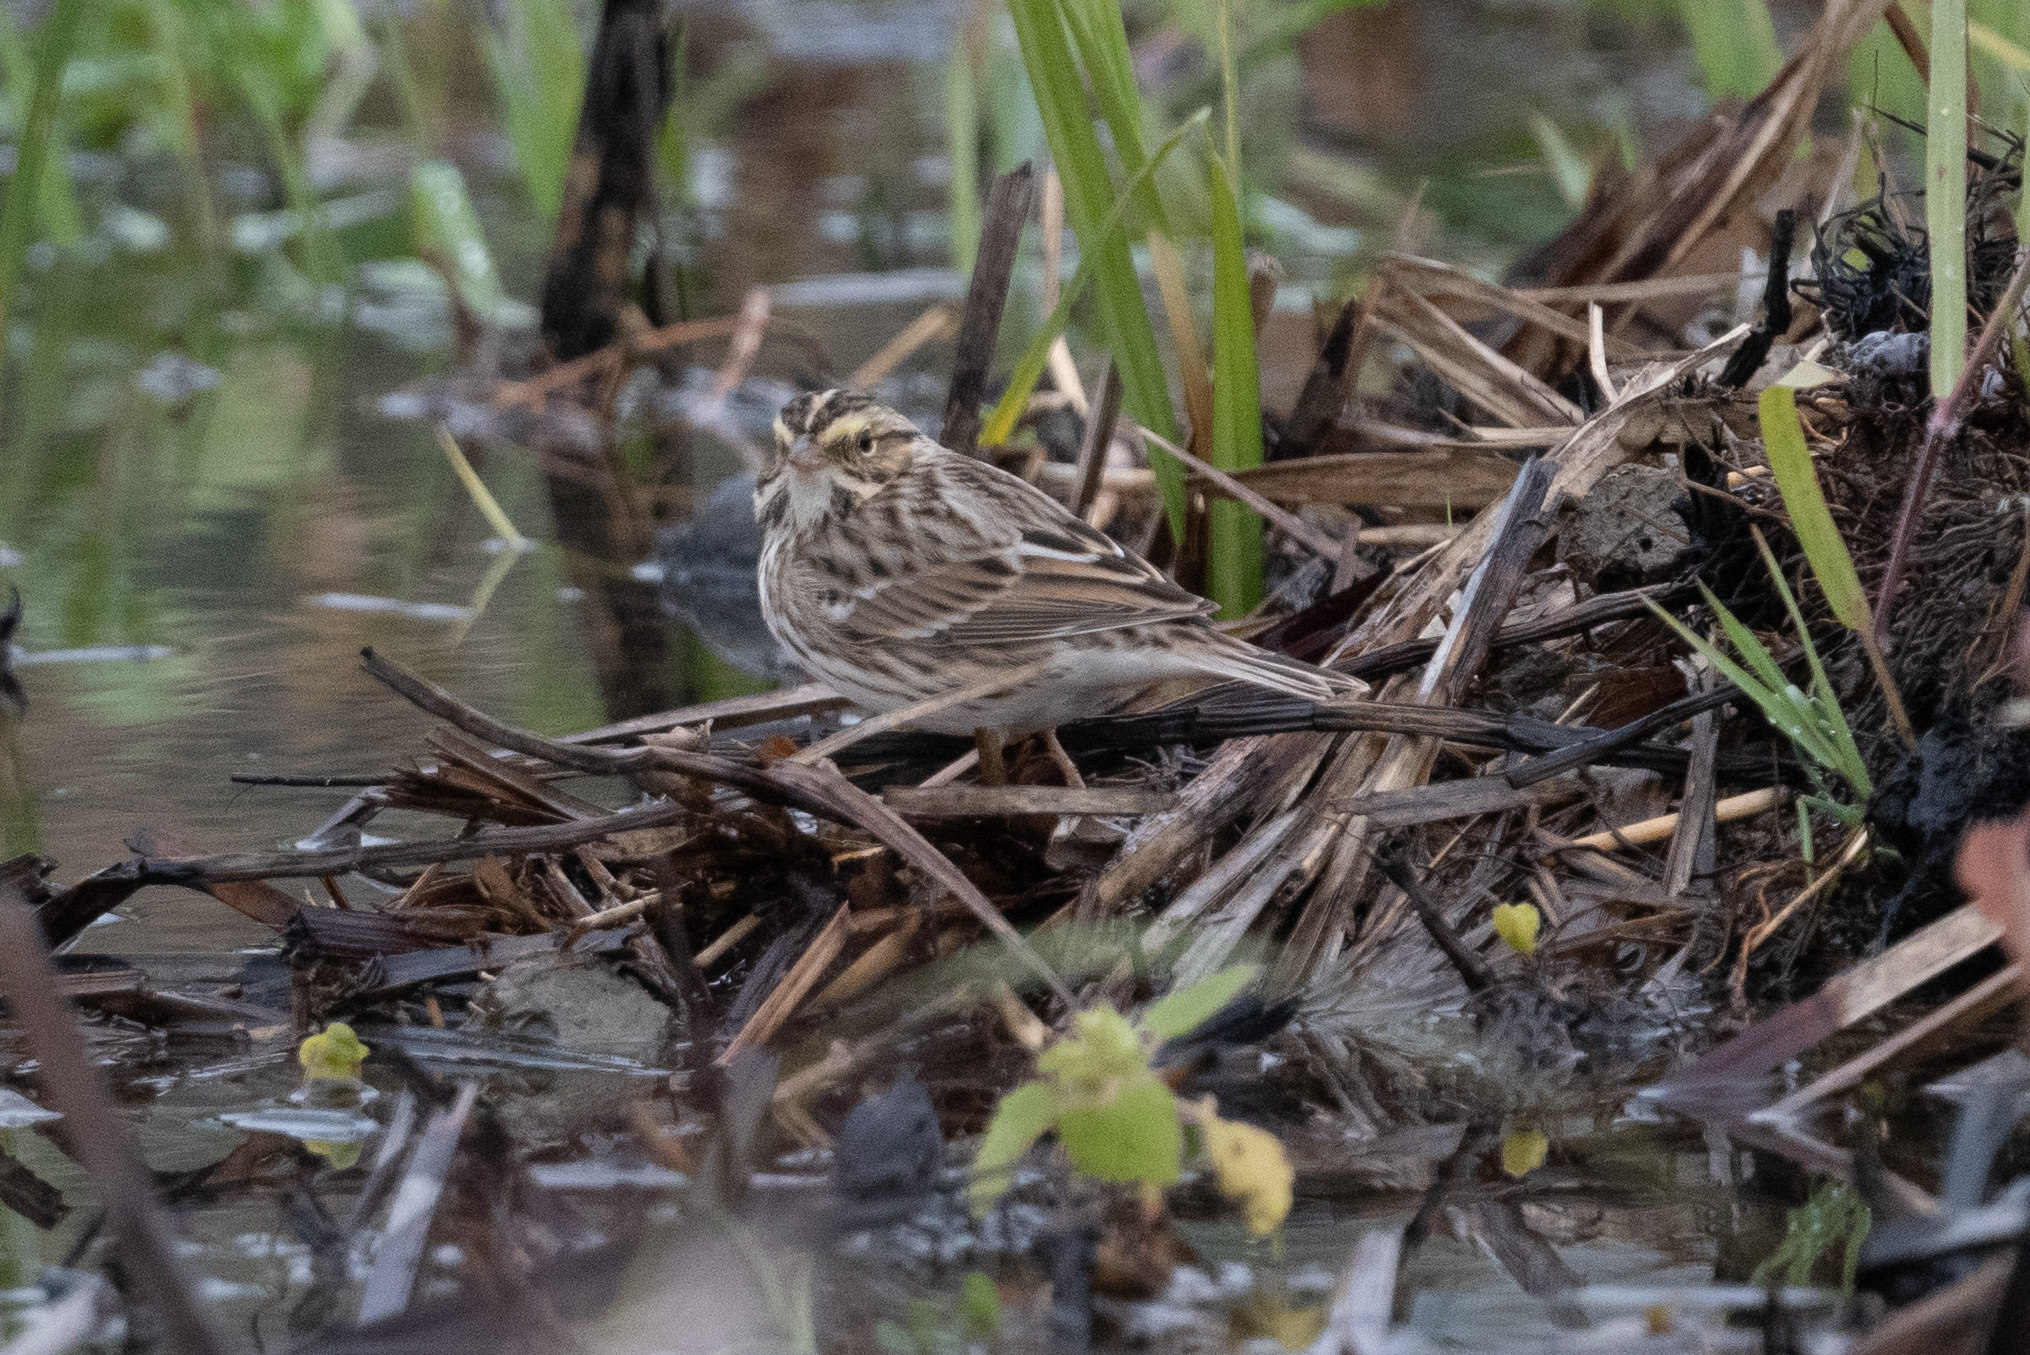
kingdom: Animalia
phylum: Chordata
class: Aves
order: Passeriformes
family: Passerellidae
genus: Passerculus
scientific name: Passerculus sandwichensis
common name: Savannah sparrow
